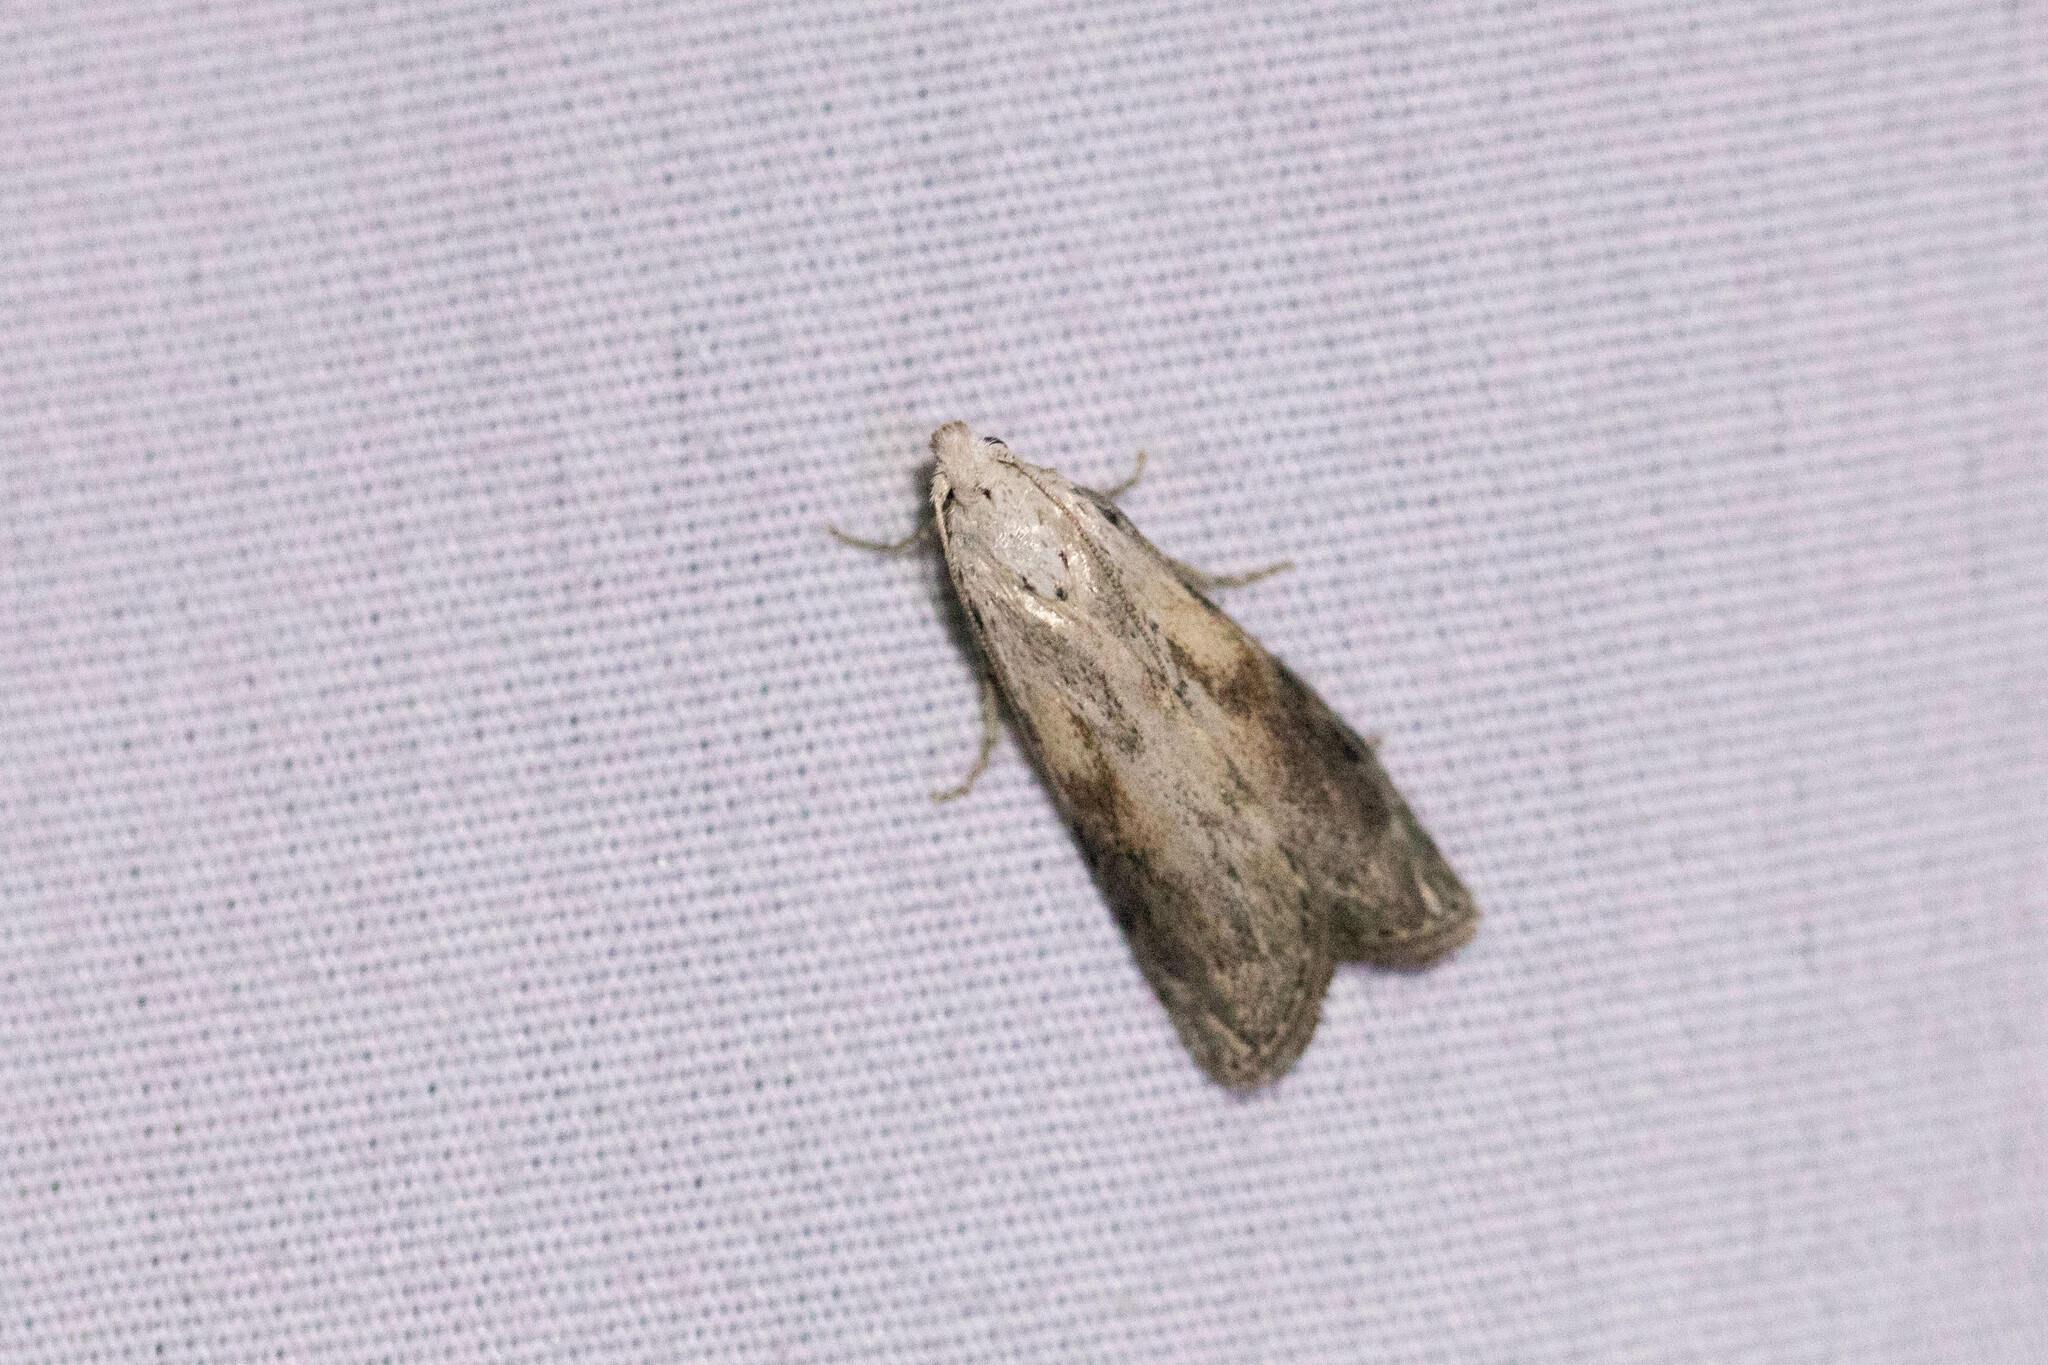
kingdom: Animalia
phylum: Arthropoda
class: Insecta
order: Lepidoptera
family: Pyralidae
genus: Aphomia
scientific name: Aphomia sociella
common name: Bee moth
